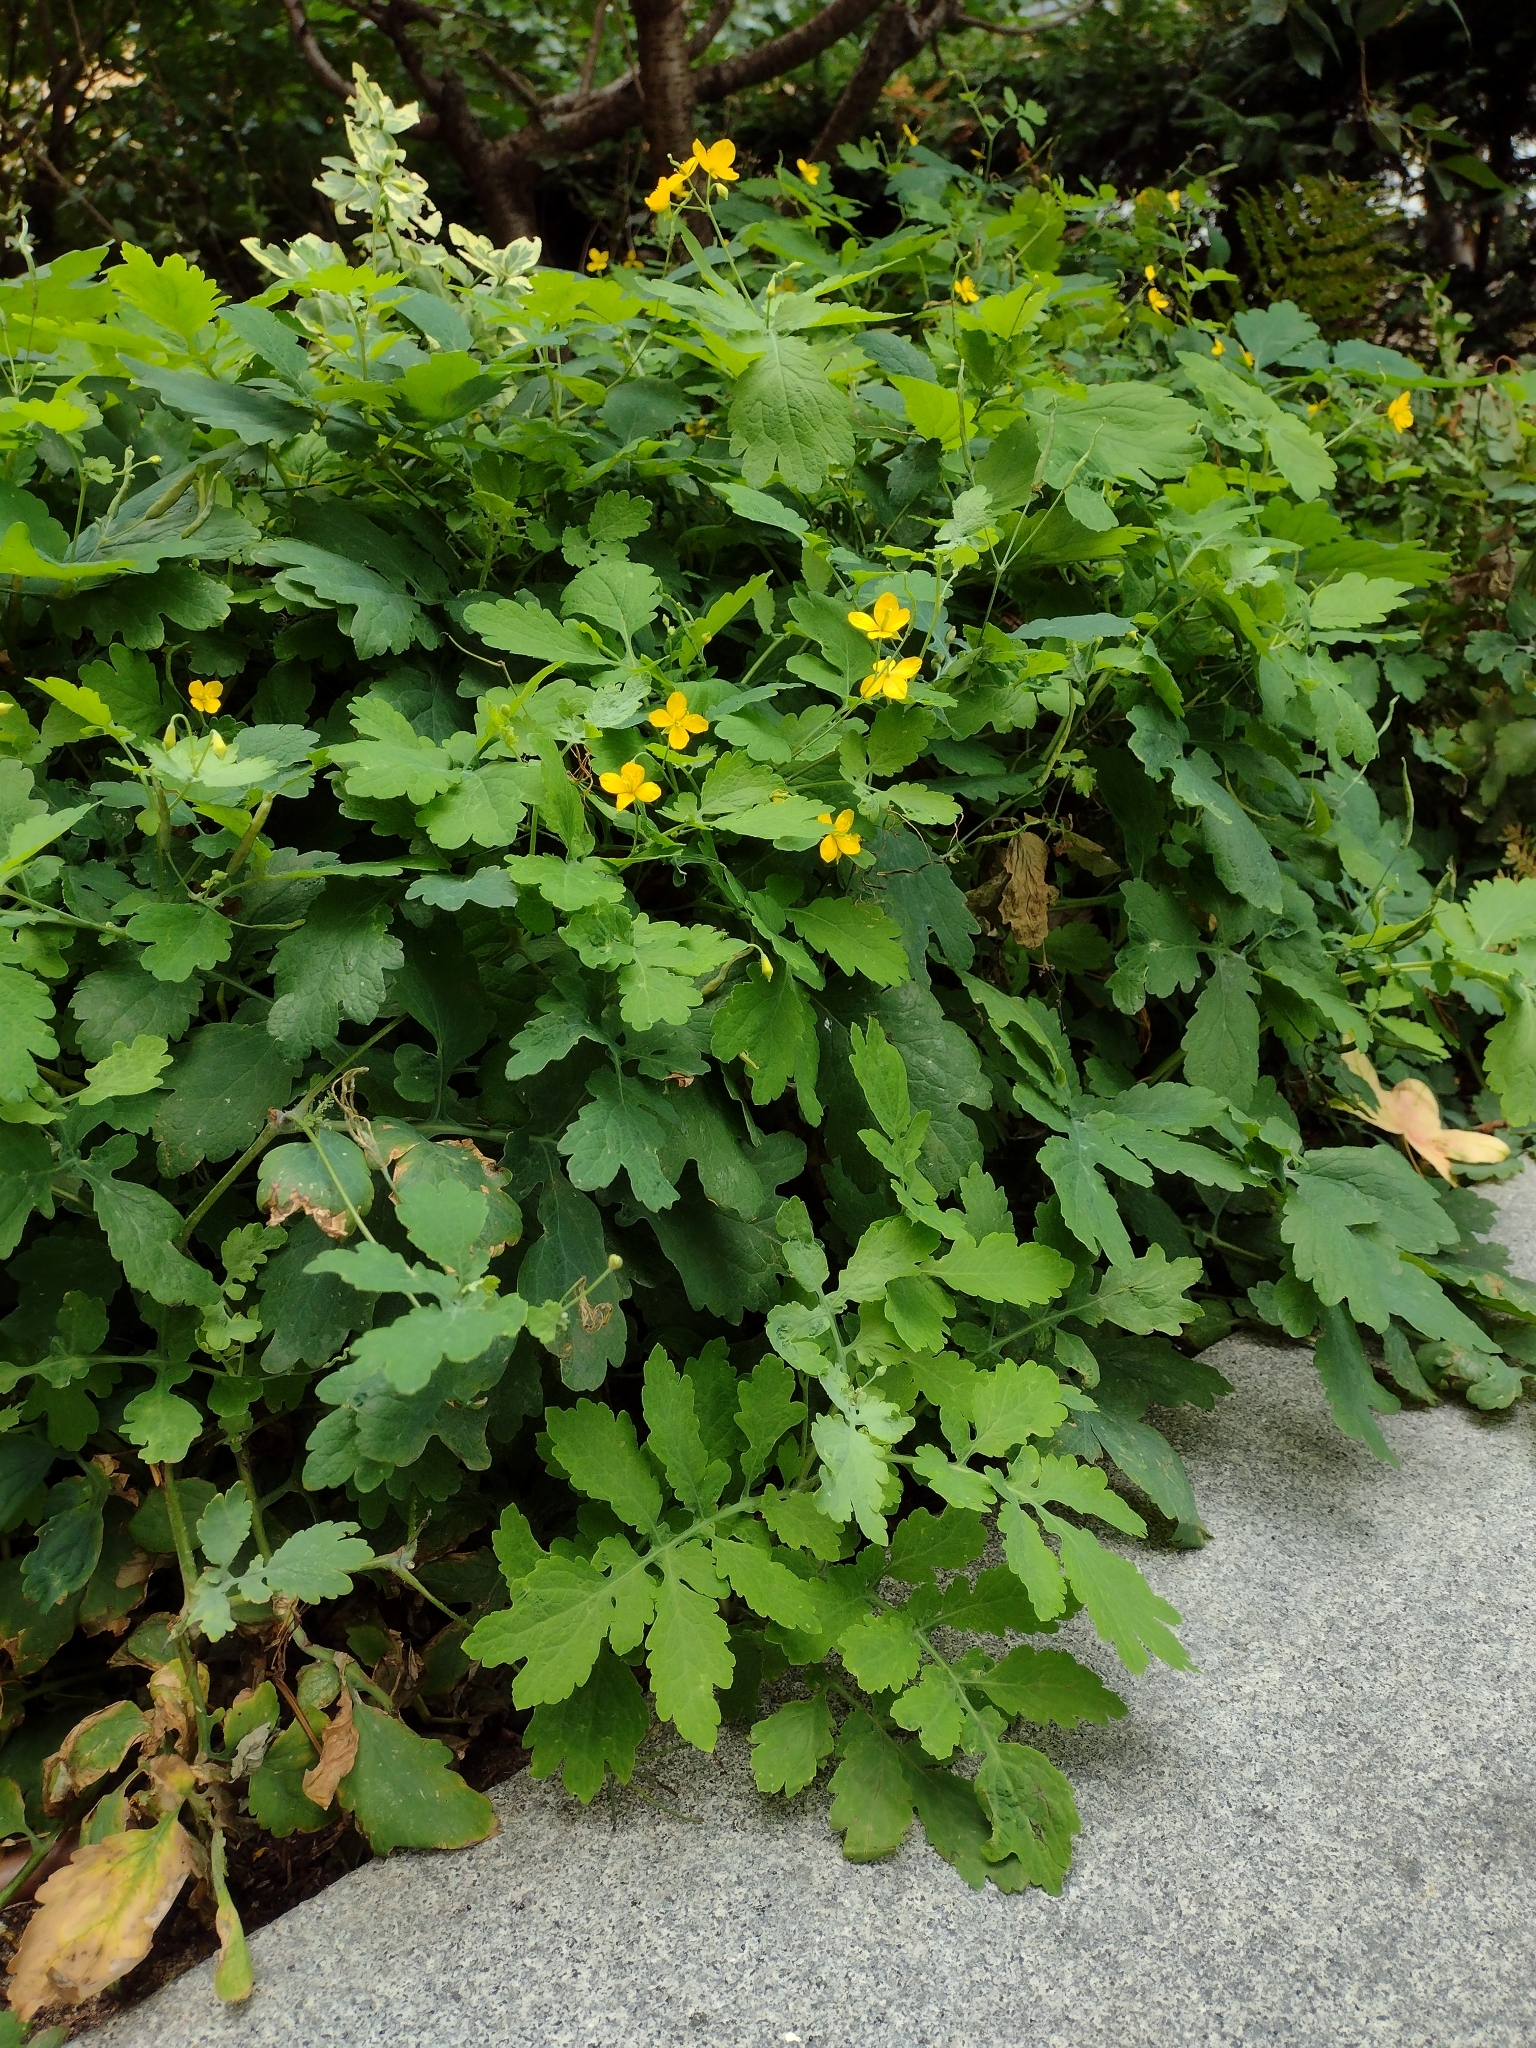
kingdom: Plantae
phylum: Tracheophyta
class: Magnoliopsida
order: Ranunculales
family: Papaveraceae
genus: Chelidonium
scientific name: Chelidonium majus
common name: Greater celandine
